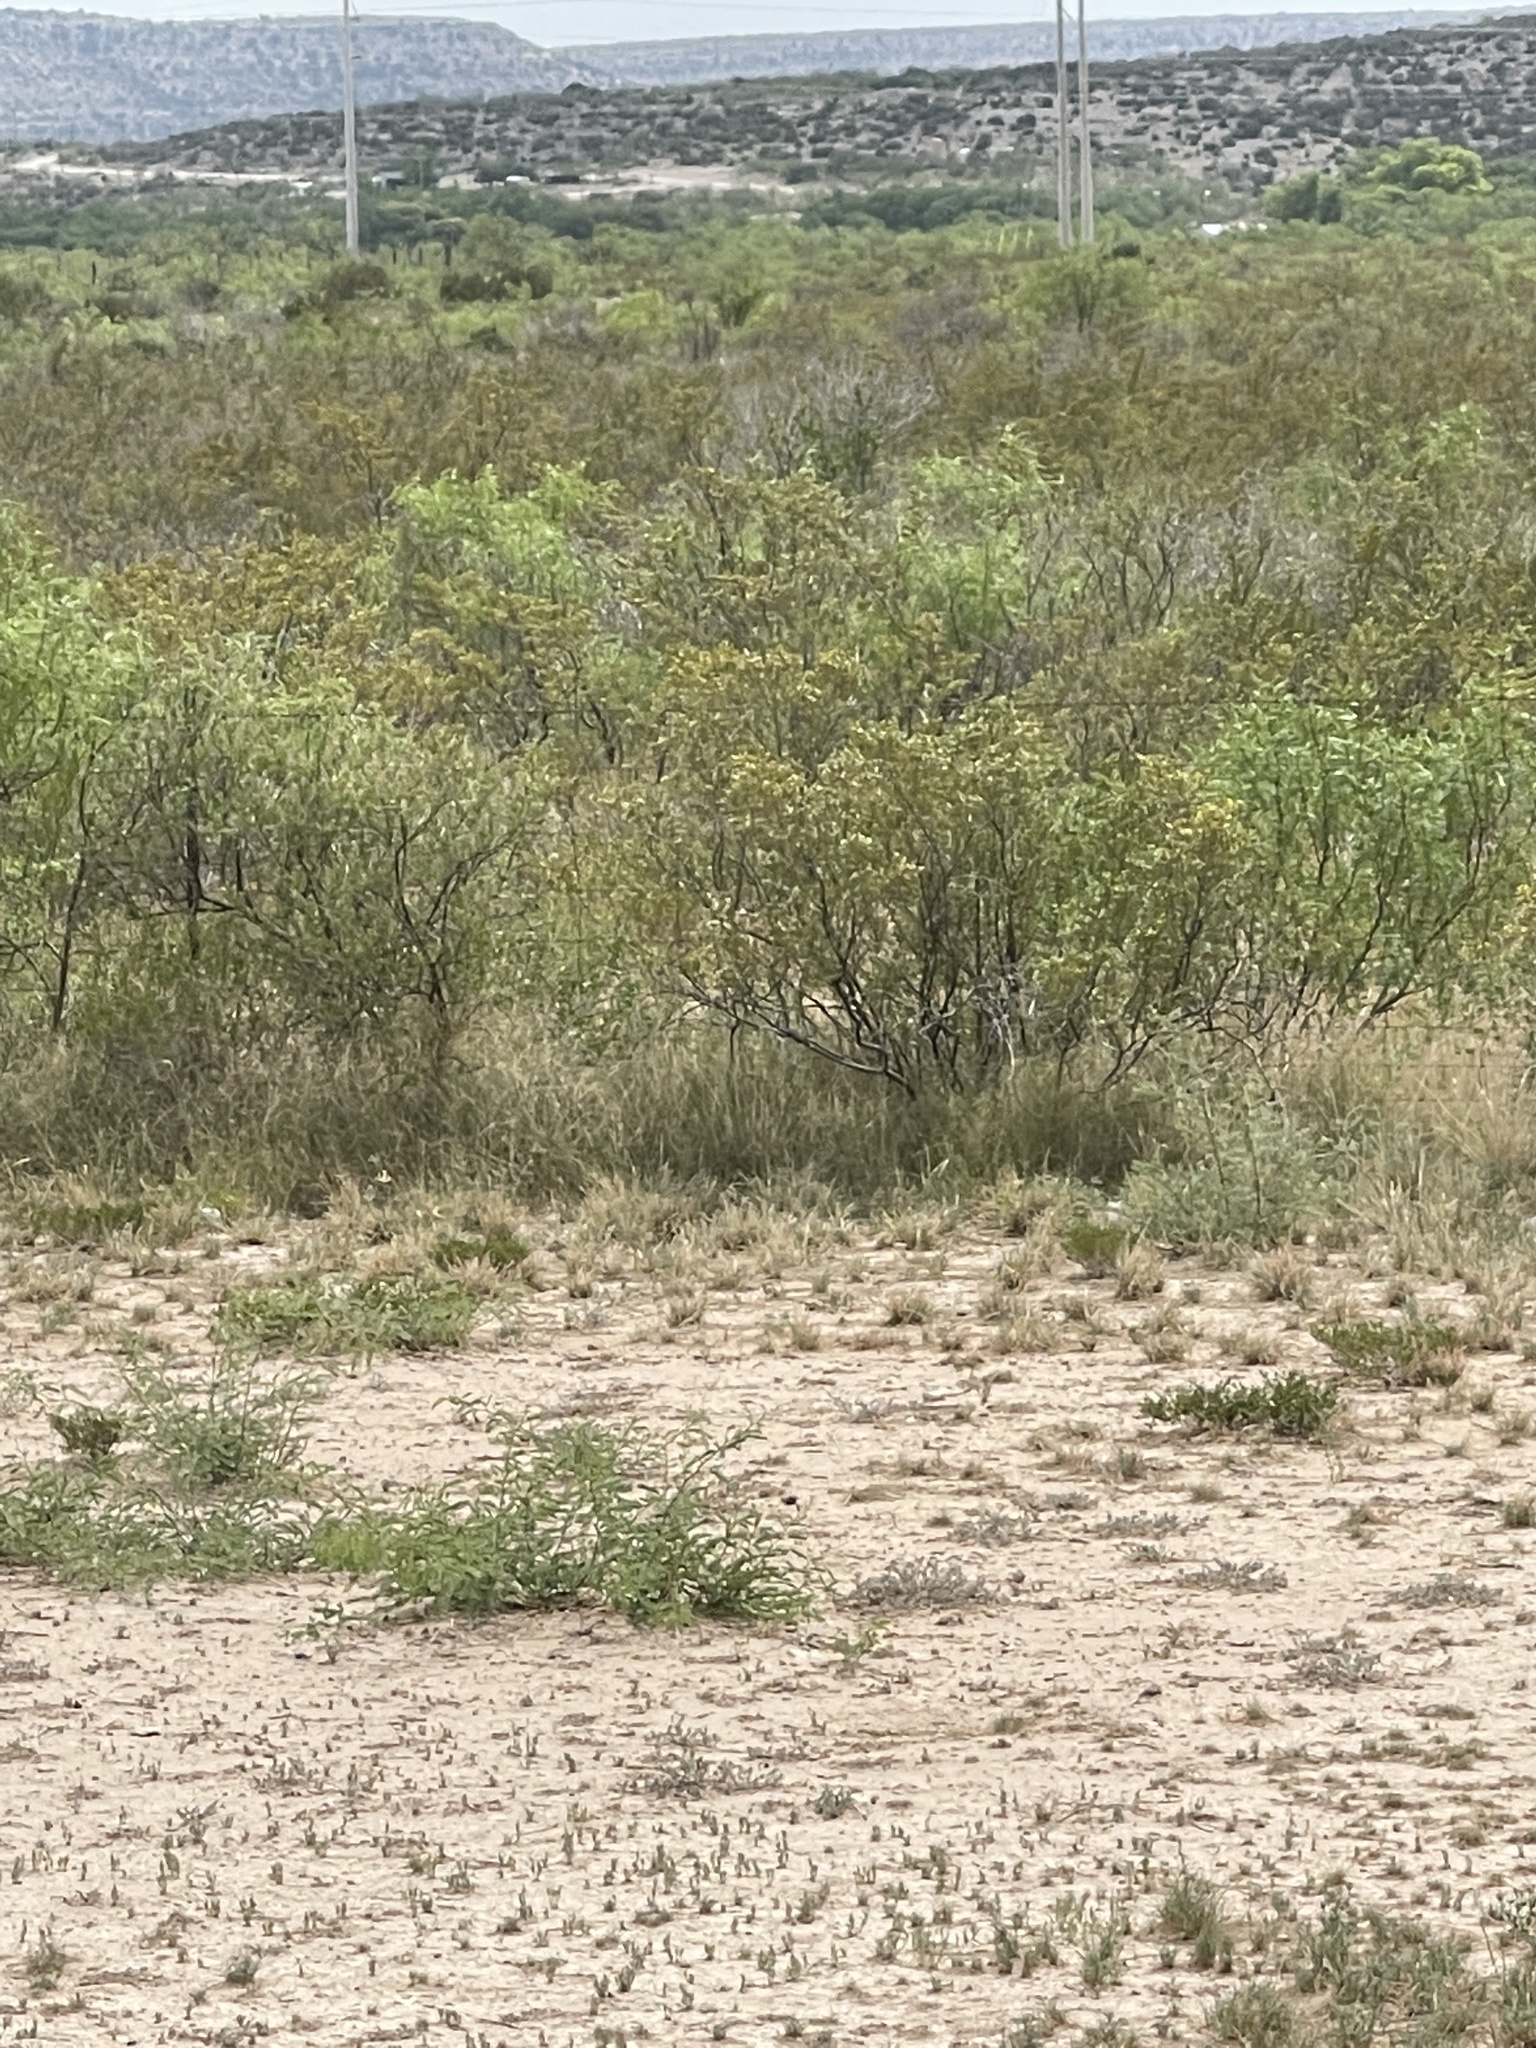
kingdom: Plantae
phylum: Tracheophyta
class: Magnoliopsida
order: Zygophyllales
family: Zygophyllaceae
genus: Larrea
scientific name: Larrea tridentata
